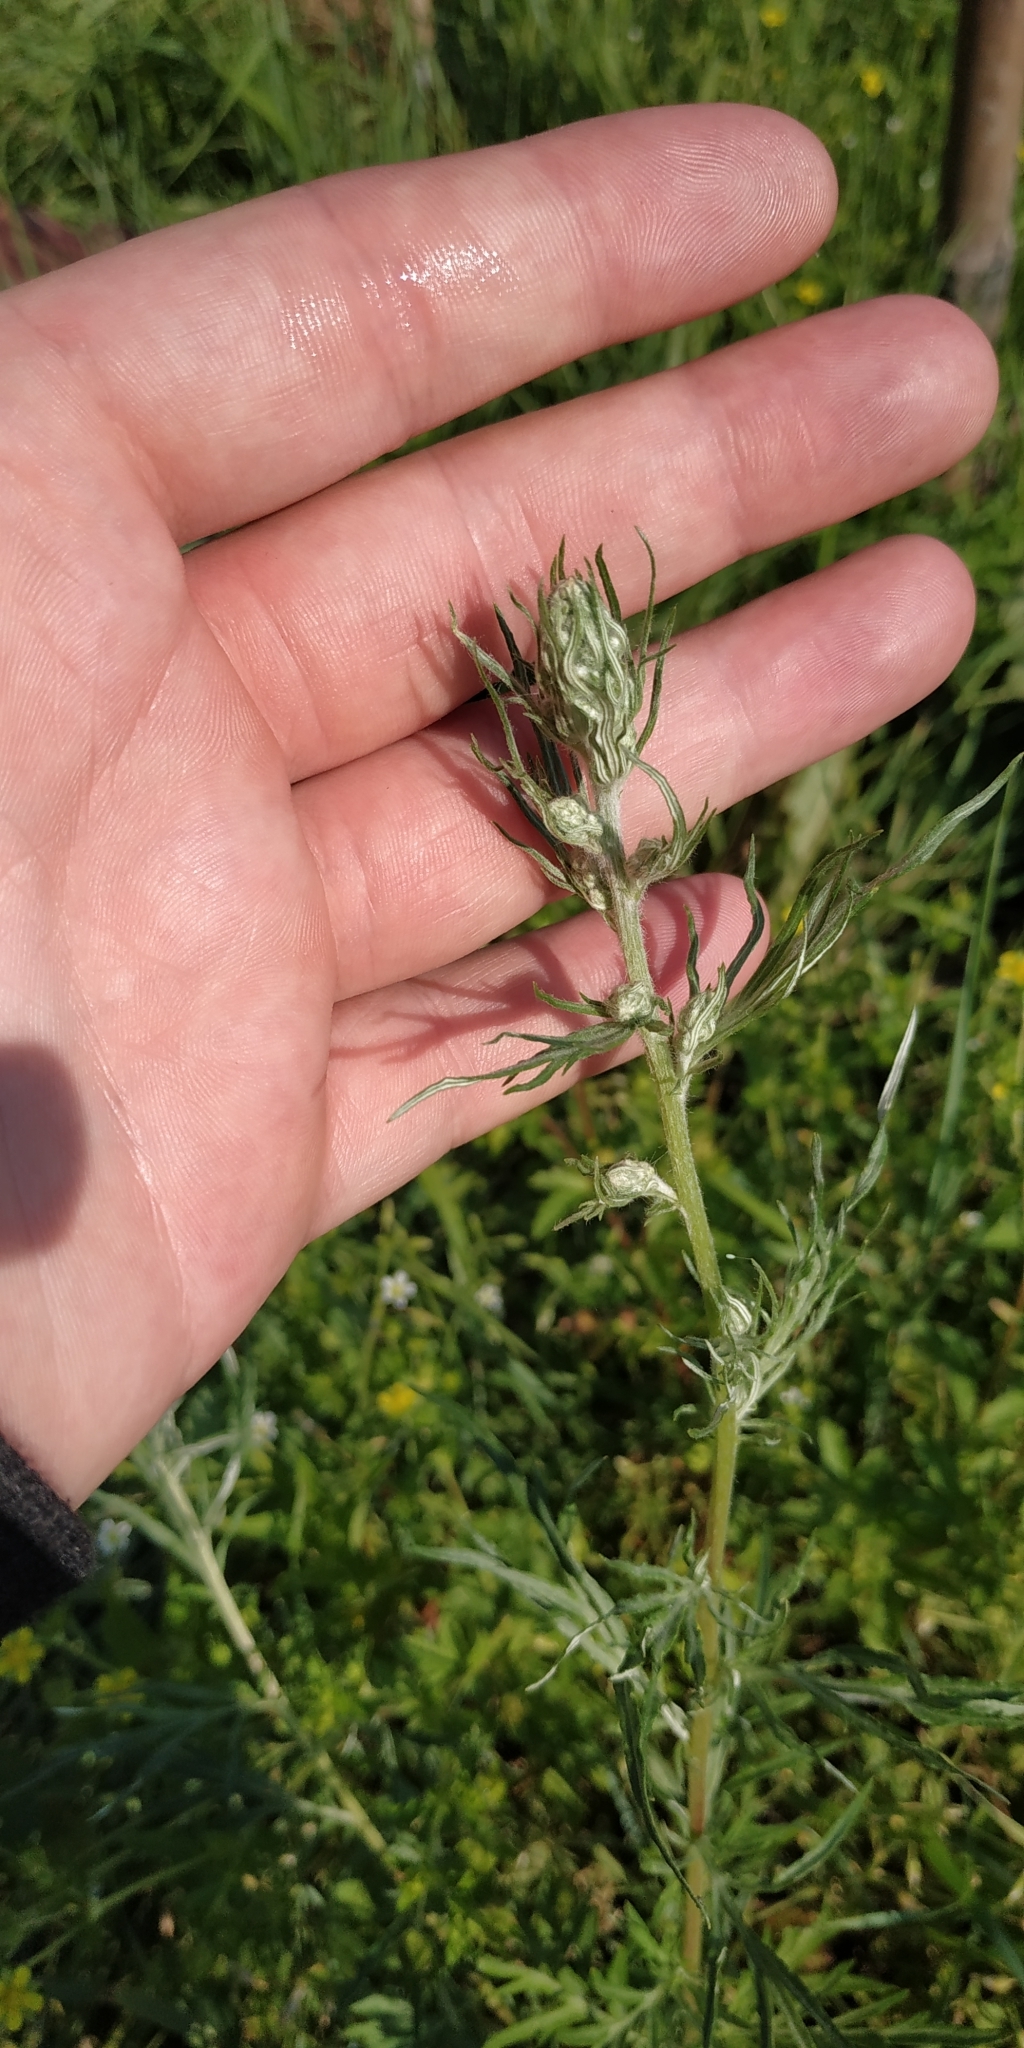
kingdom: Plantae
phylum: Tracheophyta
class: Magnoliopsida
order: Asterales
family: Asteraceae
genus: Artemisia
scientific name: Artemisia vulgaris
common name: Mugwort
